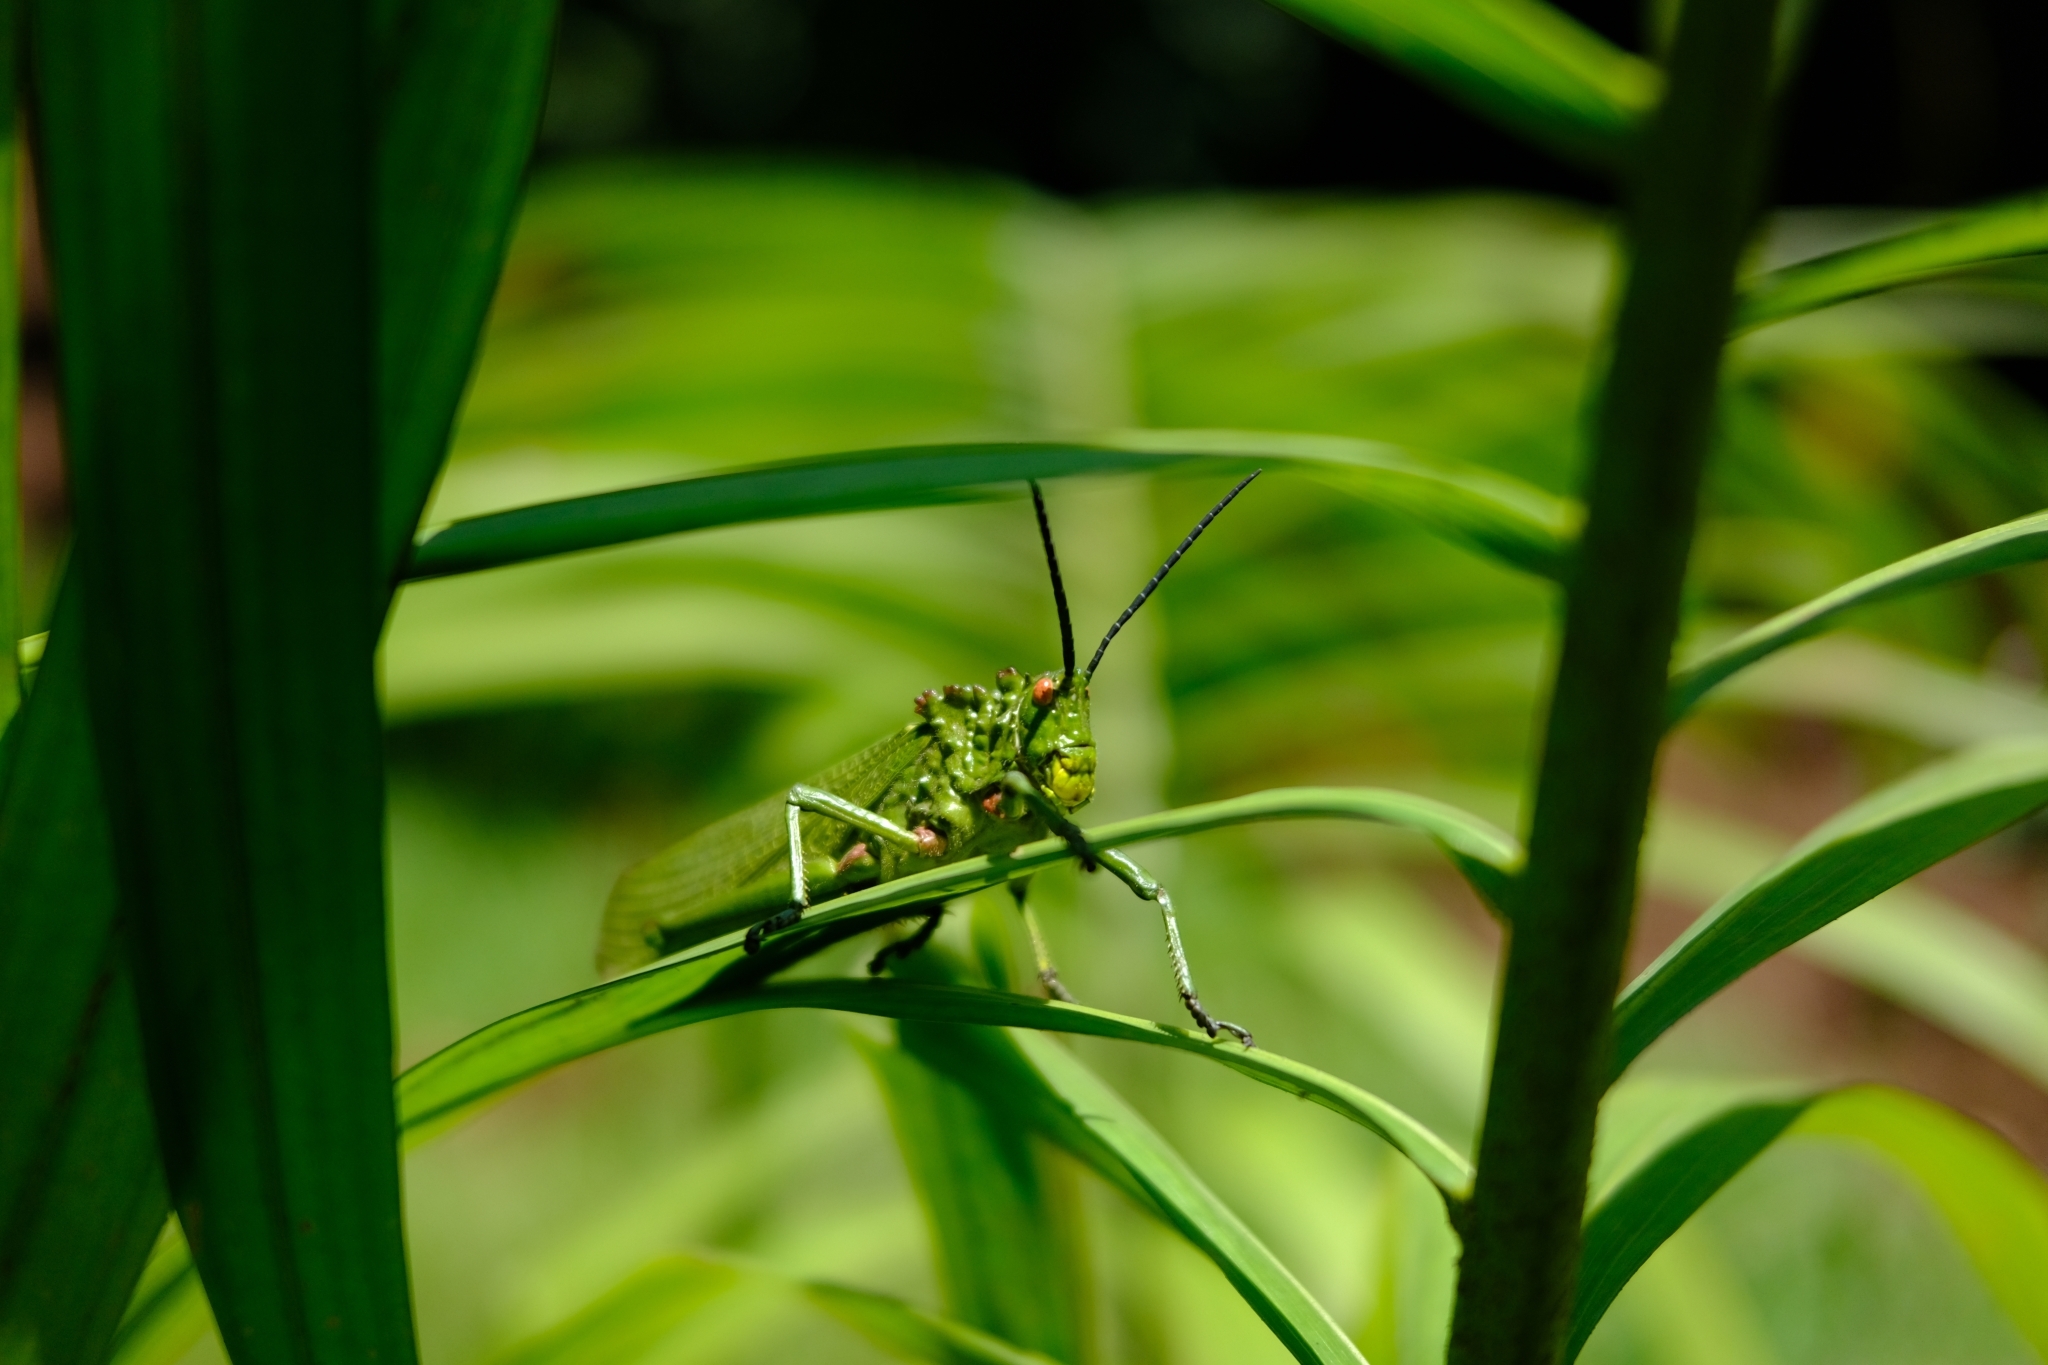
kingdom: Animalia
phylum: Arthropoda
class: Insecta
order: Orthoptera
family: Pyrgomorphidae
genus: Phymateus
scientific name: Phymateus viridipes
